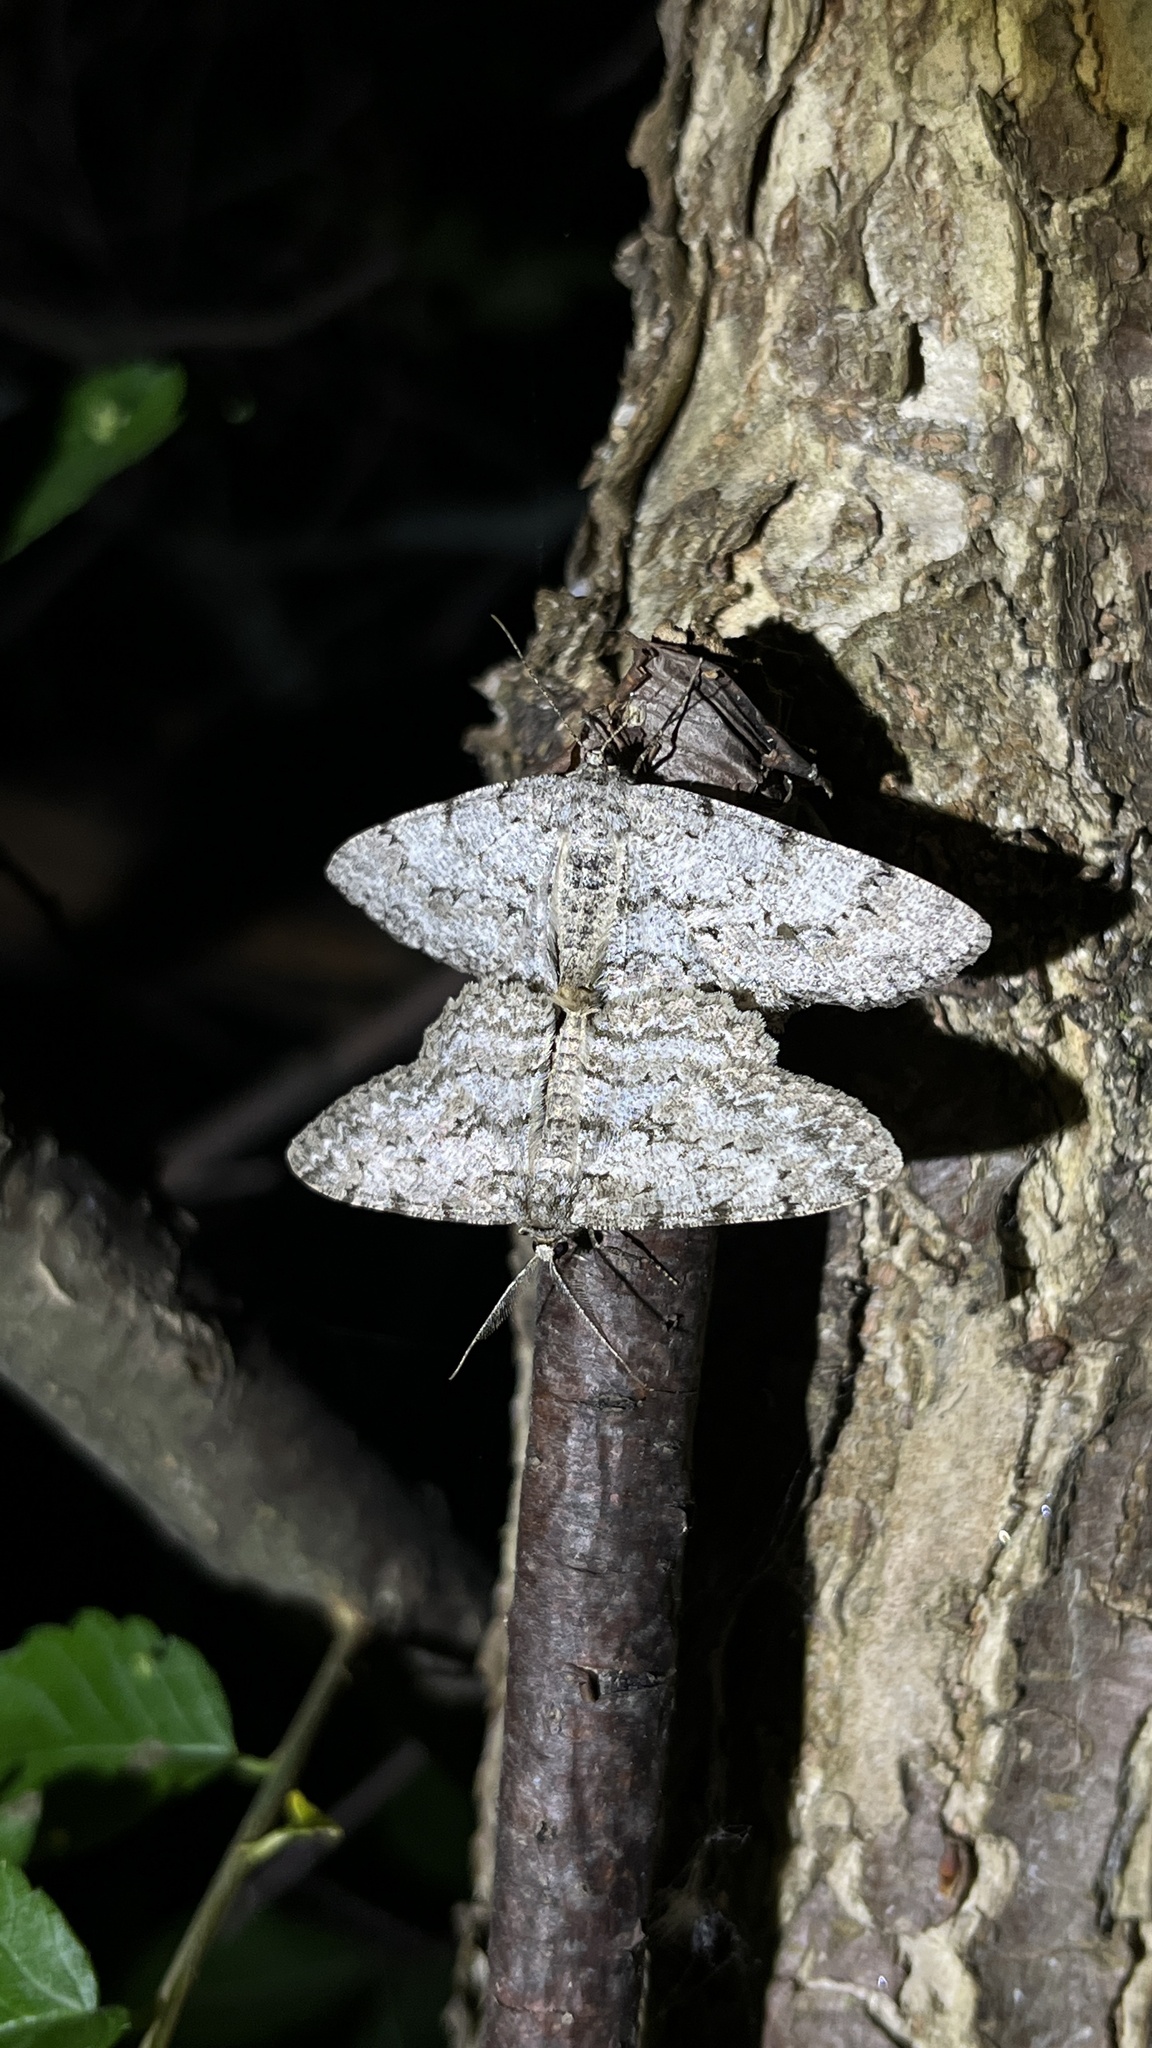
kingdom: Animalia
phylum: Arthropoda
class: Insecta
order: Lepidoptera
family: Geometridae
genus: Hypomecis
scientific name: Hypomecis punctinalis
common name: Pale oak beauty
